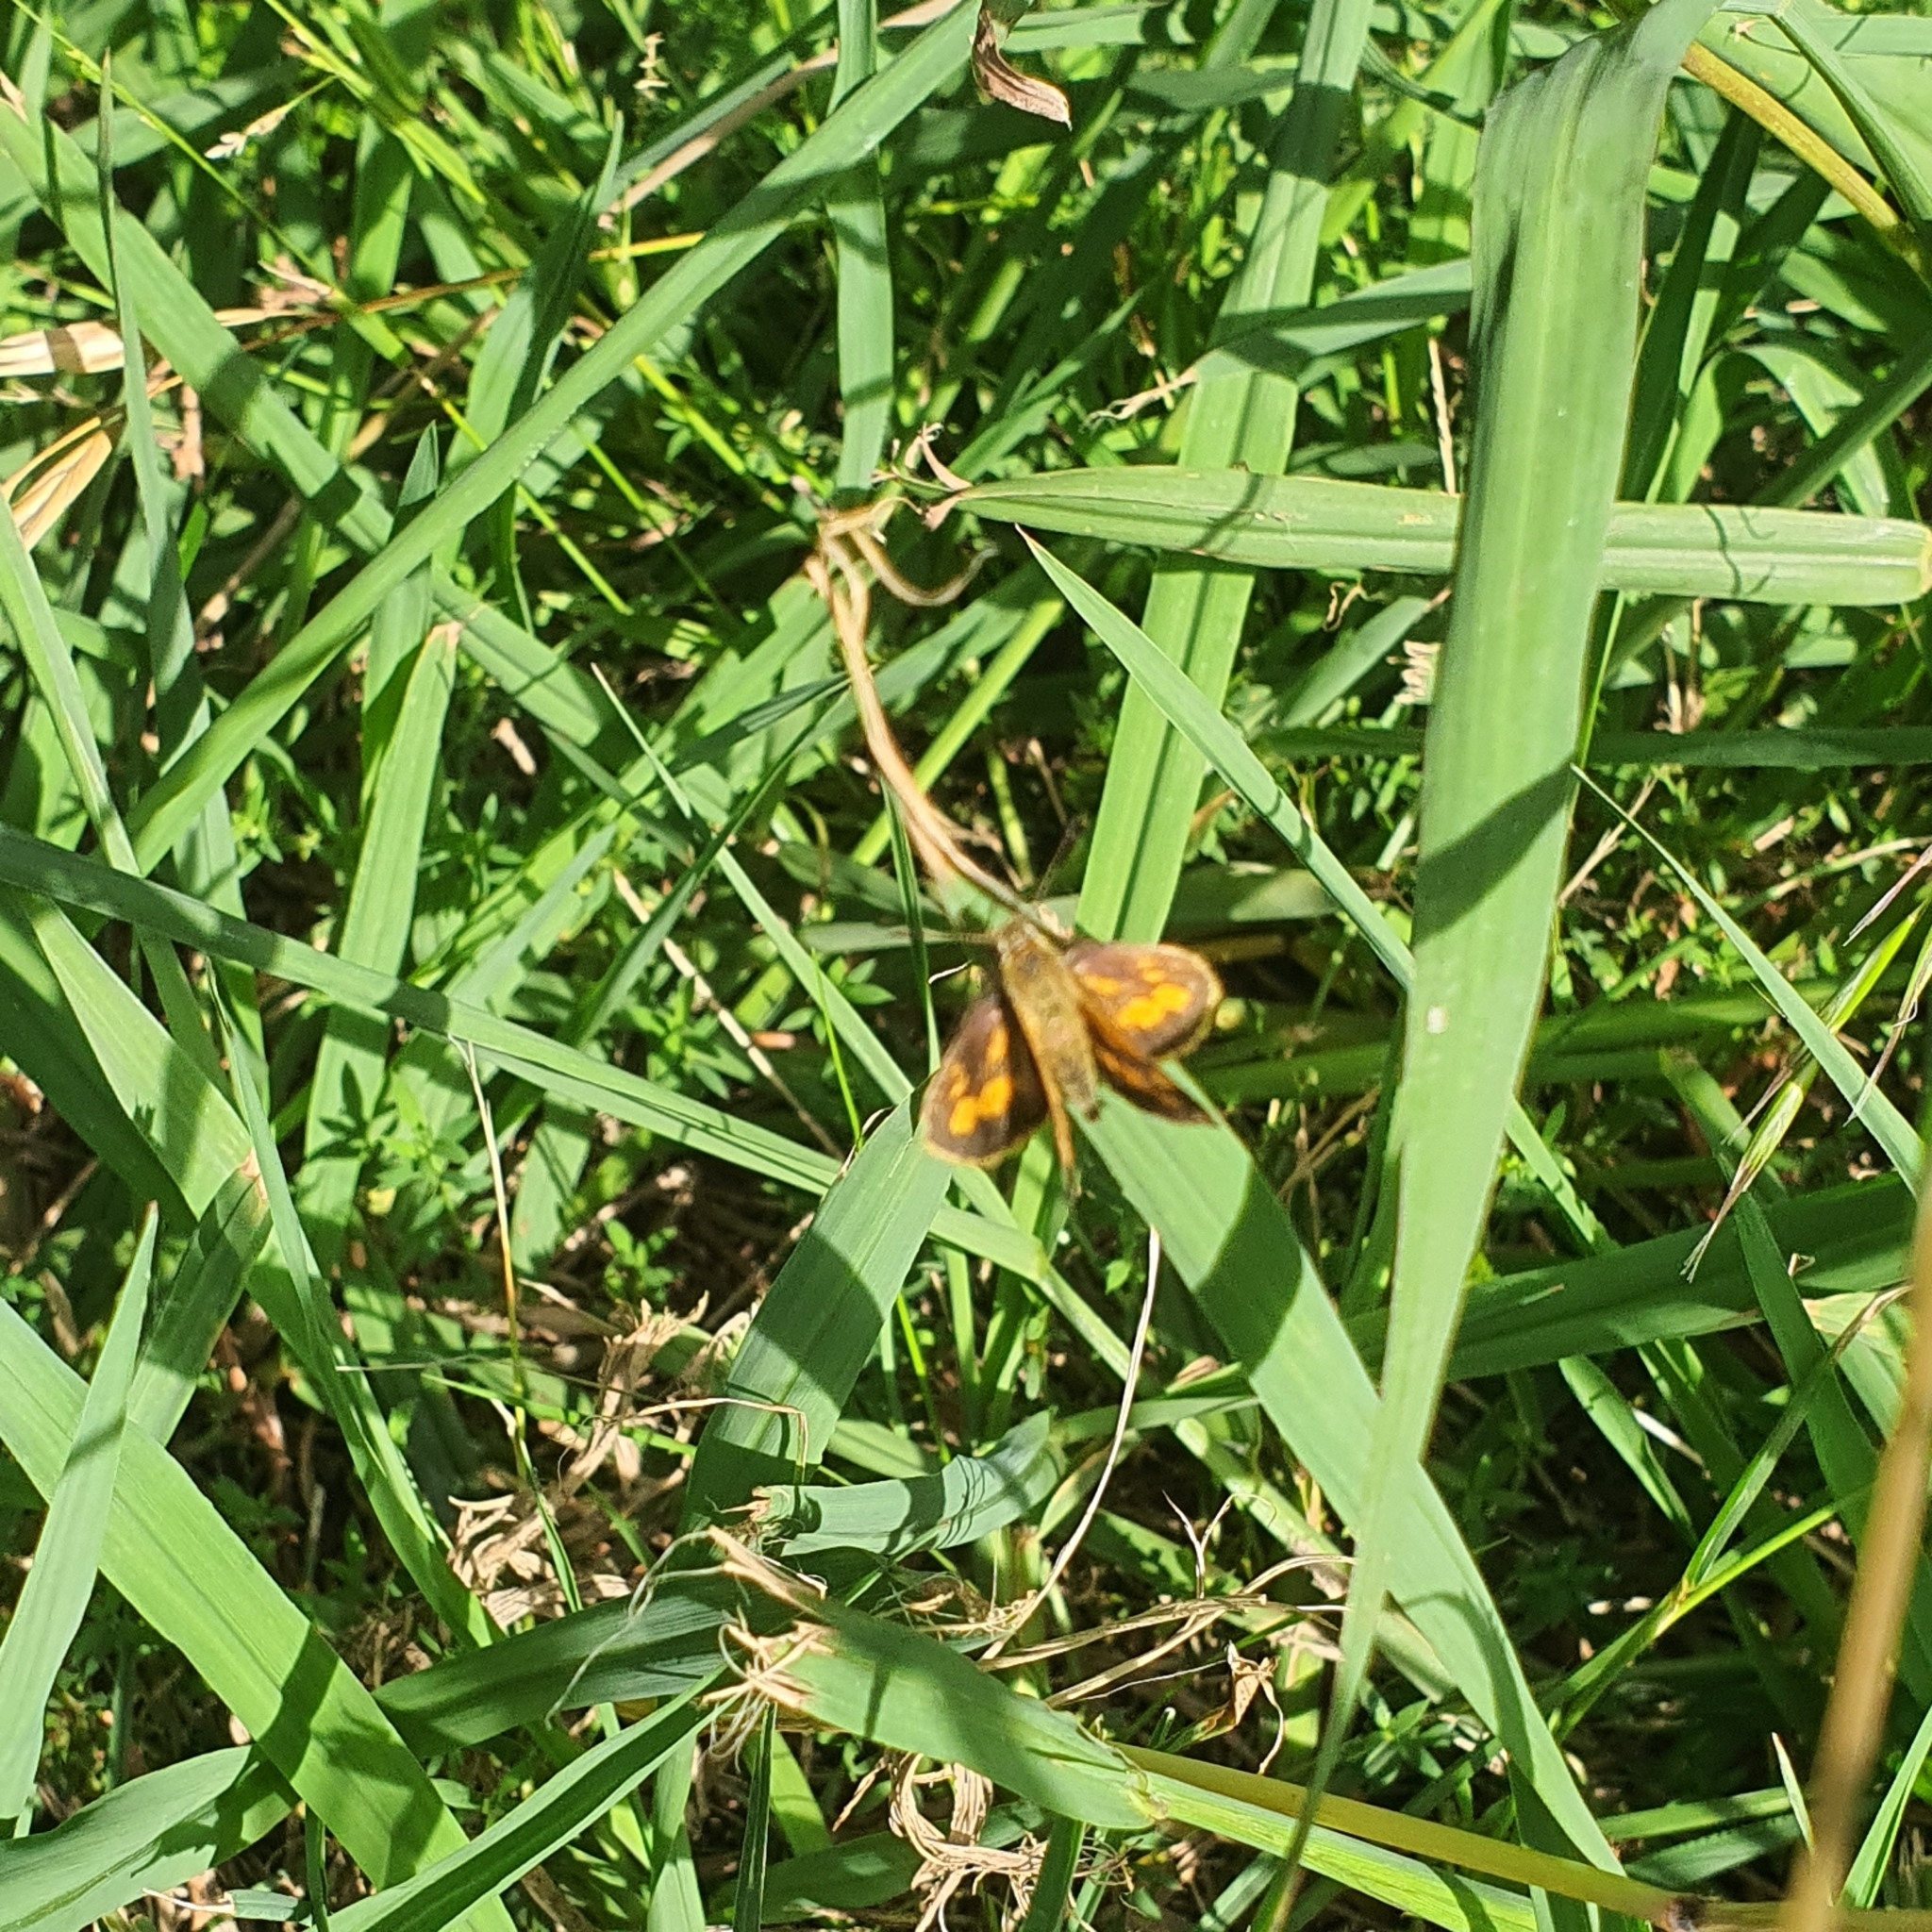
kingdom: Animalia
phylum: Arthropoda
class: Insecta
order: Lepidoptera
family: Hesperiidae
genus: Ocybadistes
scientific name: Ocybadistes walkeri
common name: Yellow-banded dart
